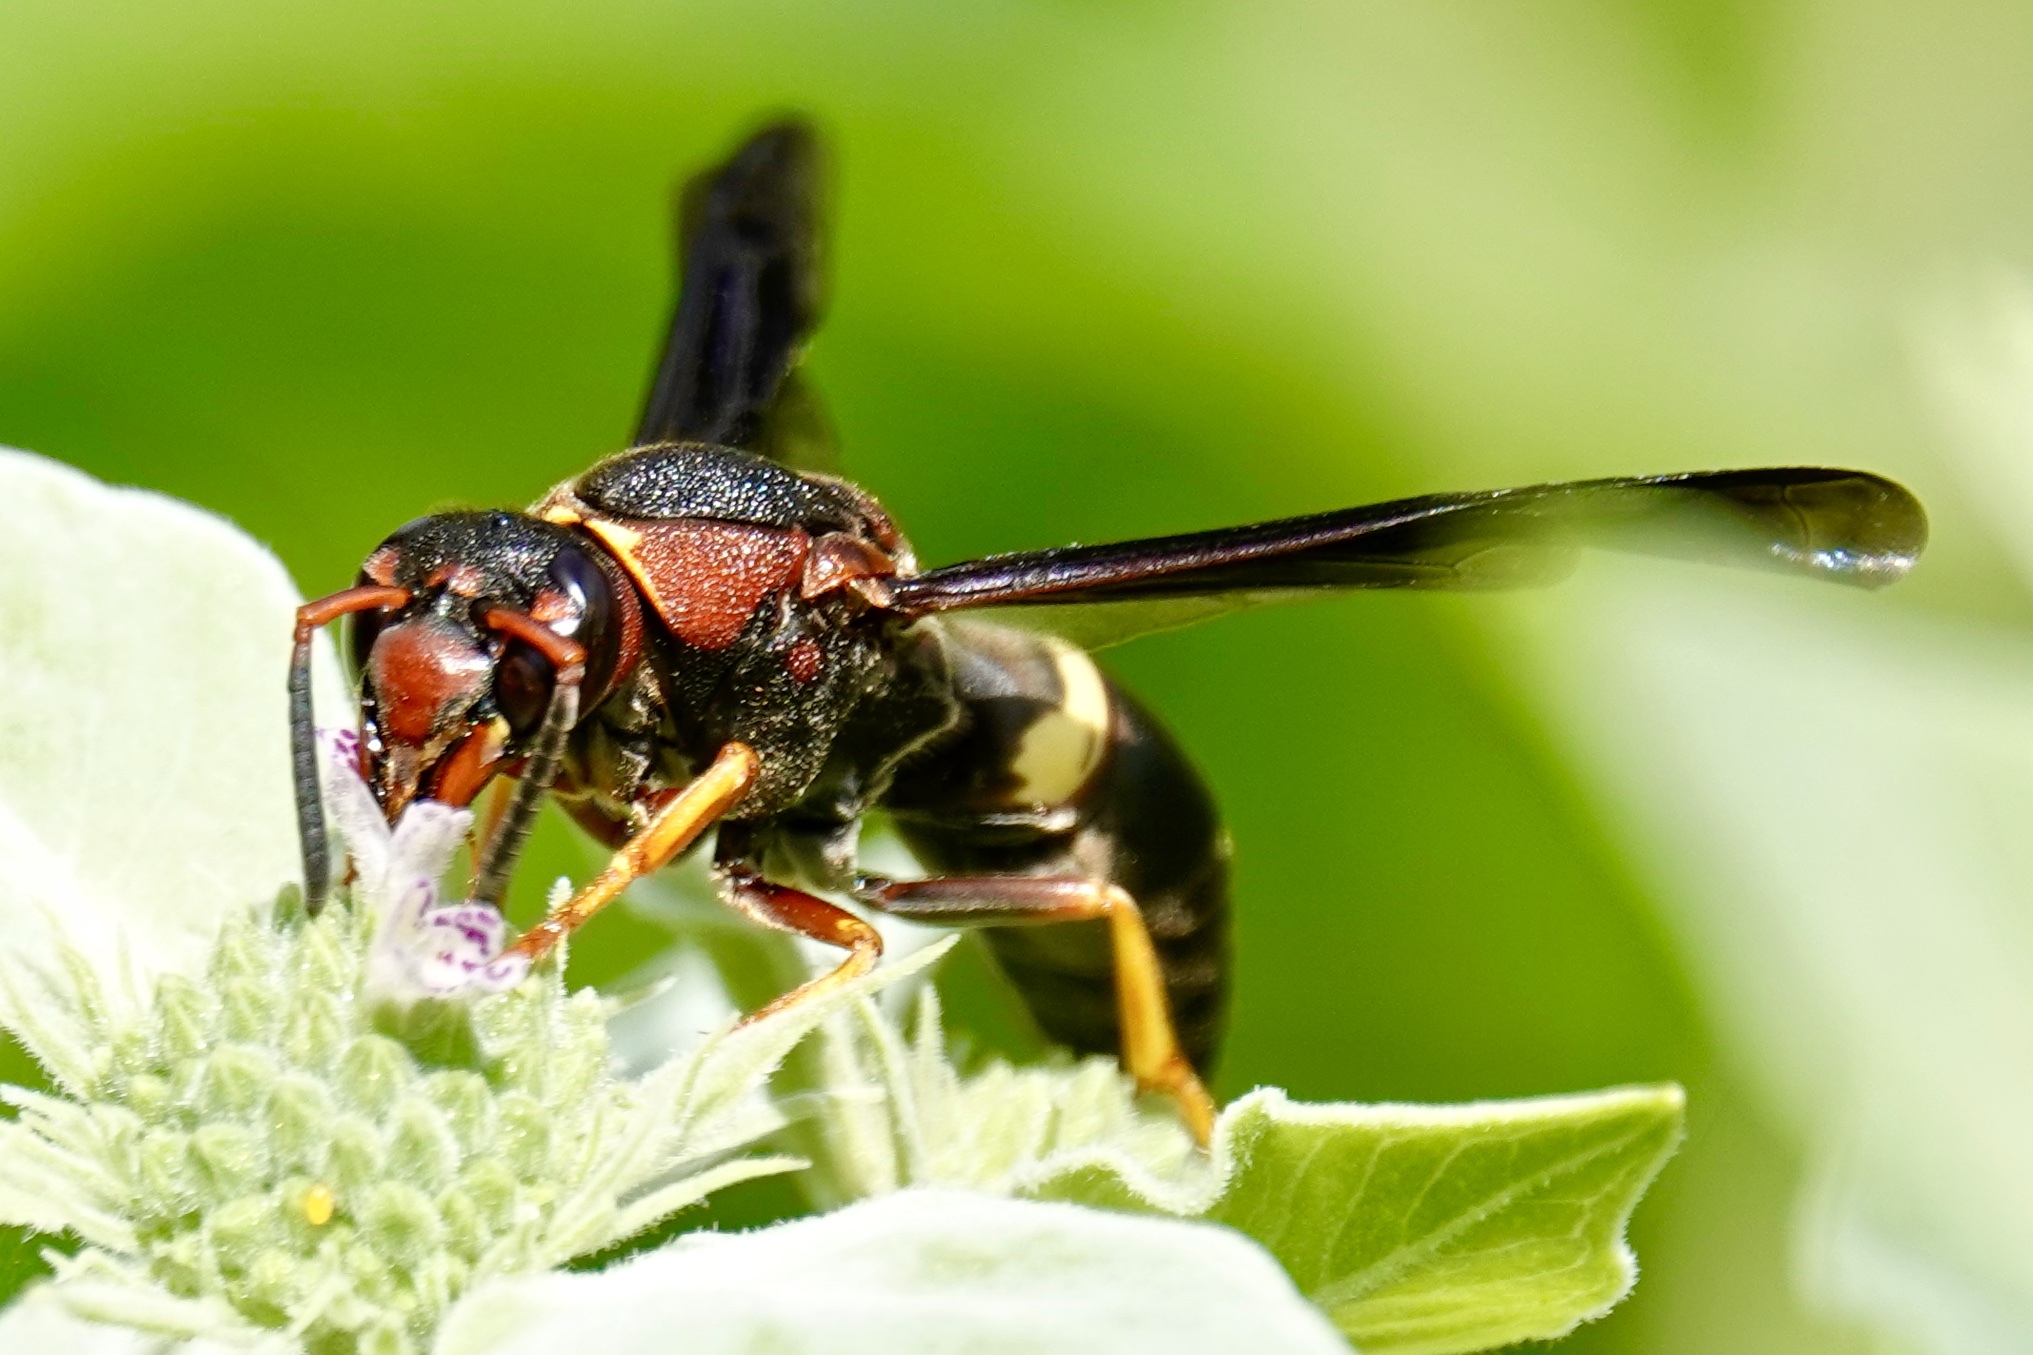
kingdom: Animalia
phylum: Arthropoda
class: Insecta
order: Hymenoptera
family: Eumenidae
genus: Euodynerus
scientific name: Euodynerus crypticus
